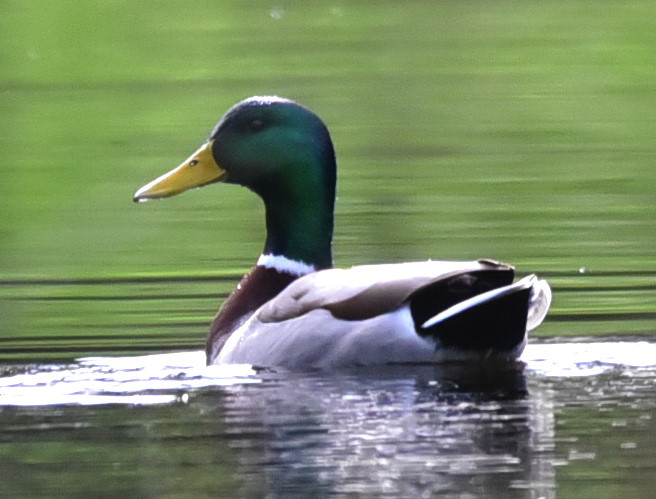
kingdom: Animalia
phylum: Chordata
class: Aves
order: Anseriformes
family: Anatidae
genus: Anas
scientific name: Anas platyrhynchos
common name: Mallard
